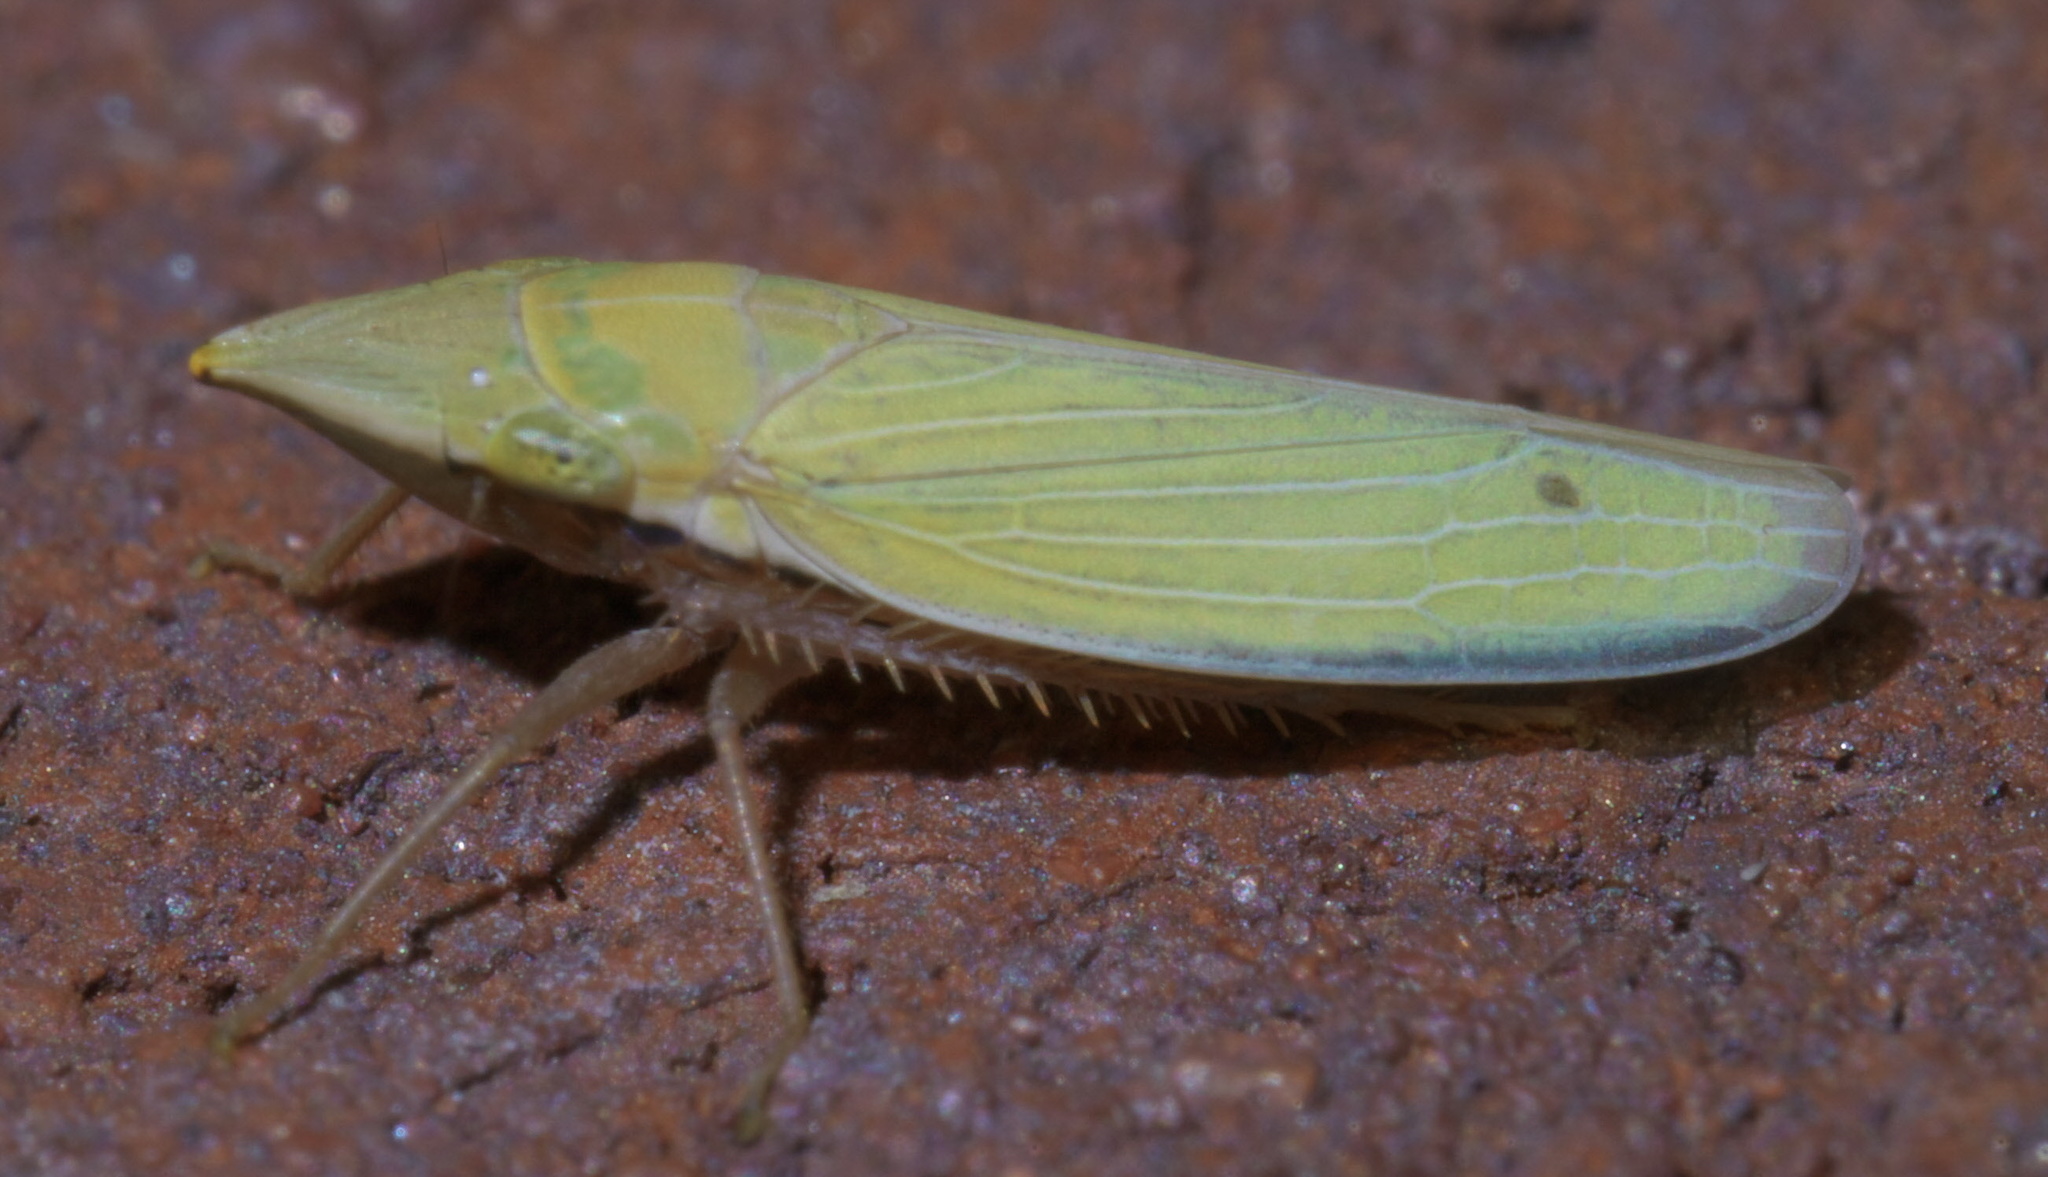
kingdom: Animalia
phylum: Arthropoda
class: Insecta
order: Hemiptera
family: Cicadellidae
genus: Draeculacephala
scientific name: Draeculacephala antica
